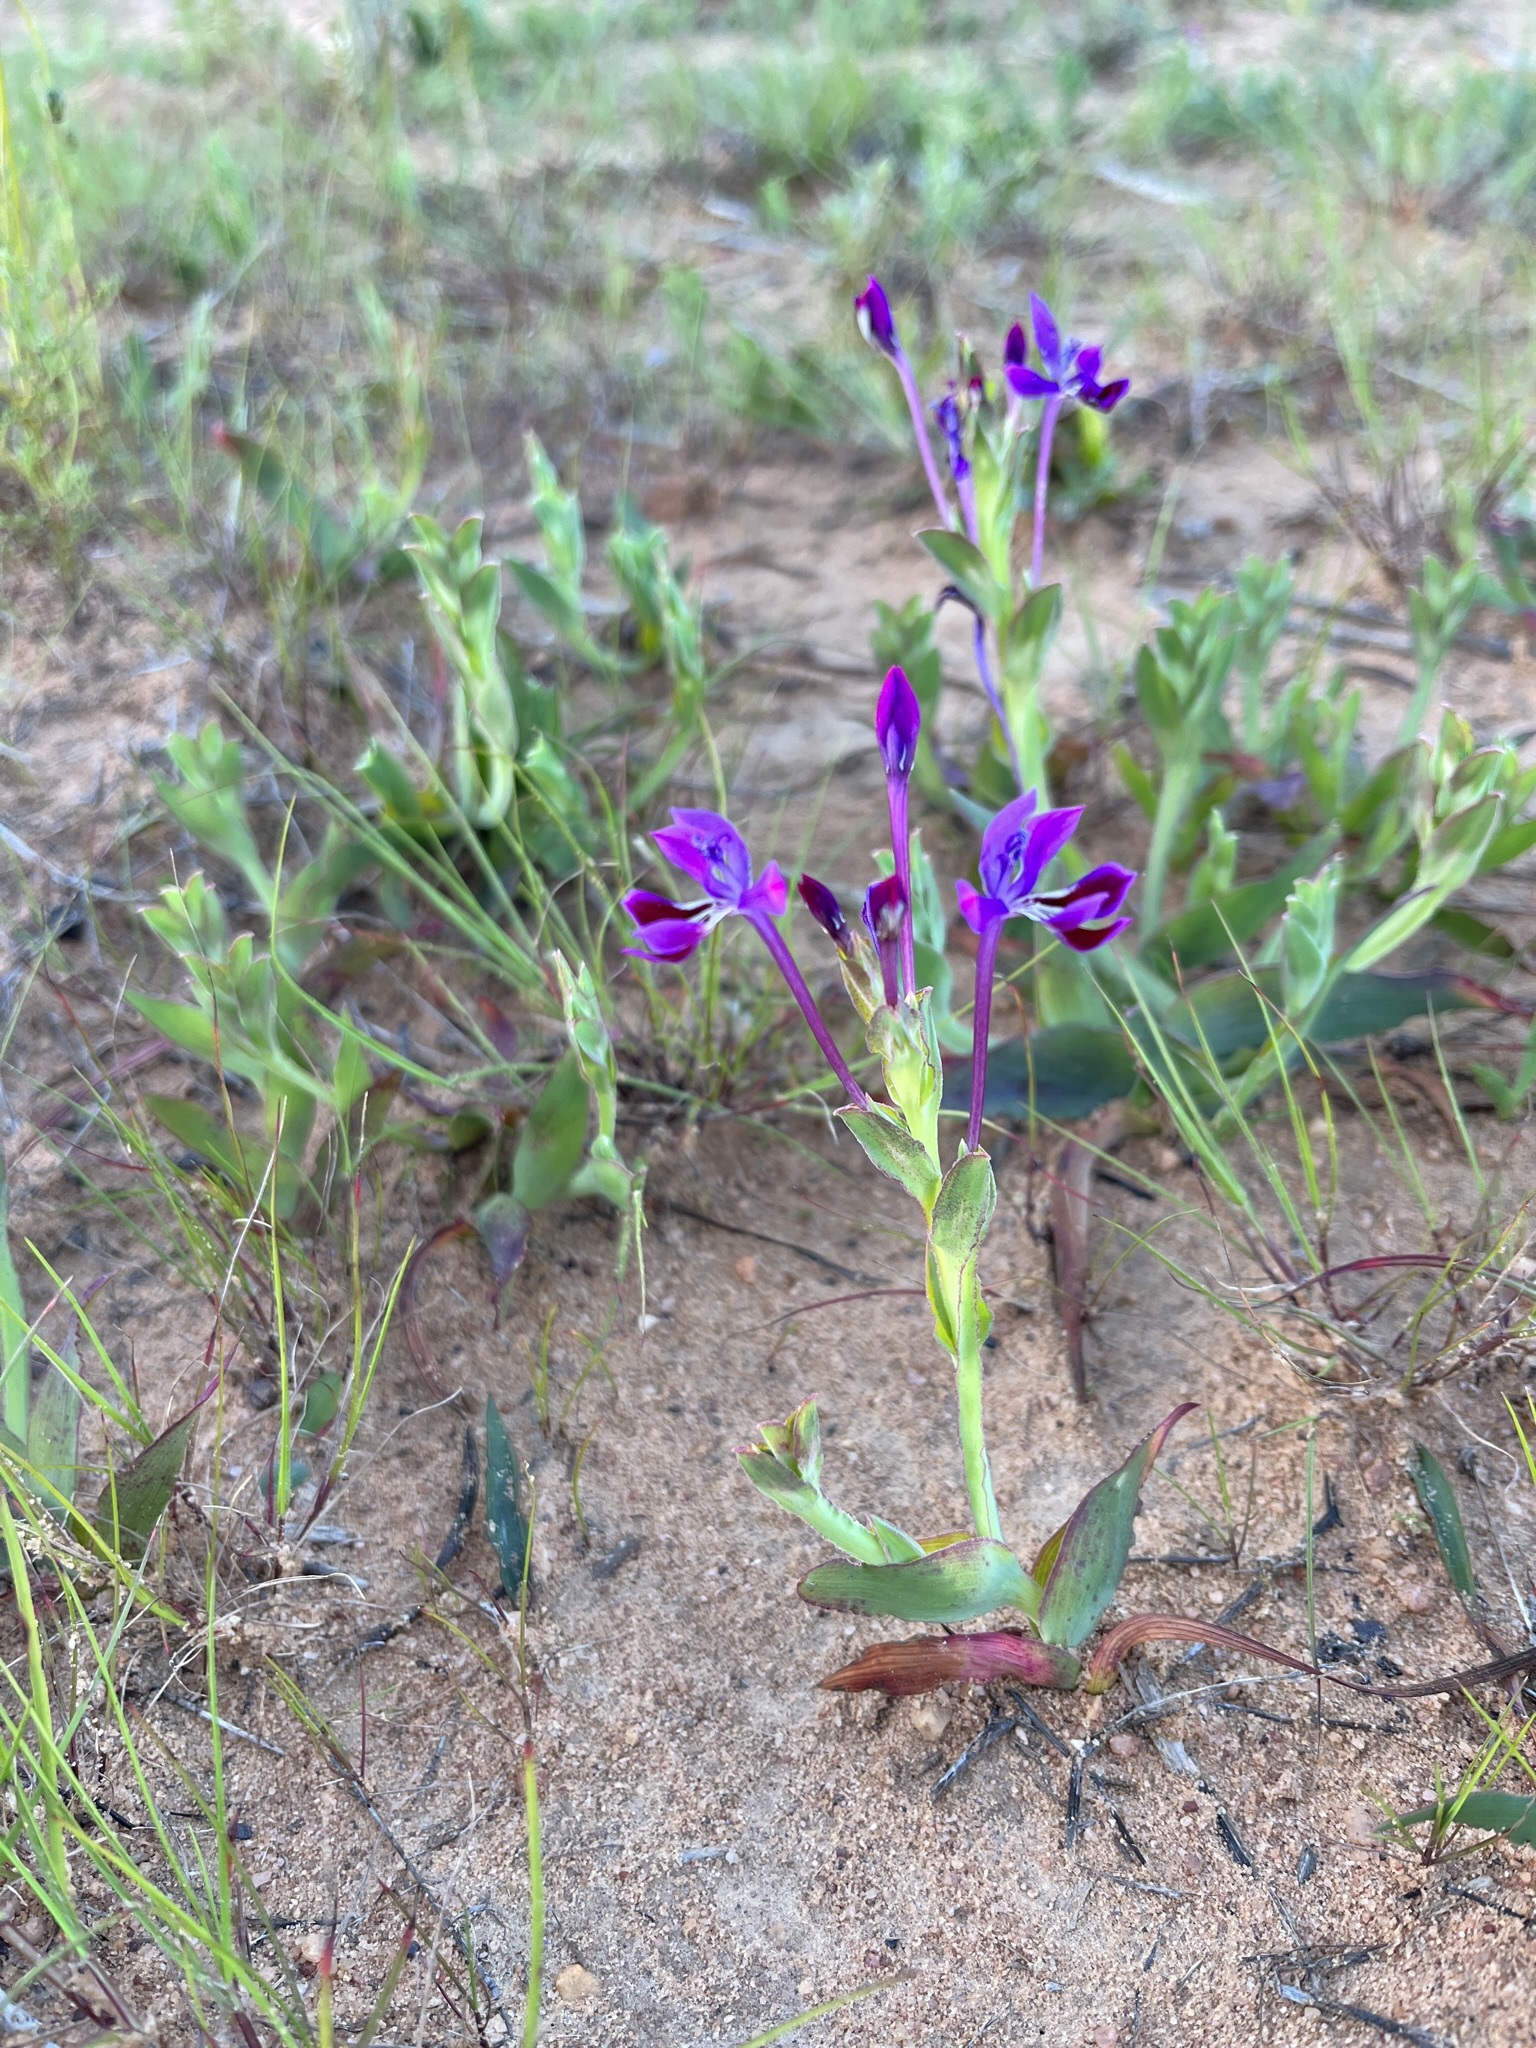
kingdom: Plantae
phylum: Tracheophyta
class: Liliopsida
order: Asparagales
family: Iridaceae
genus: Lapeirousia
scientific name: Lapeirousia jacquinii
